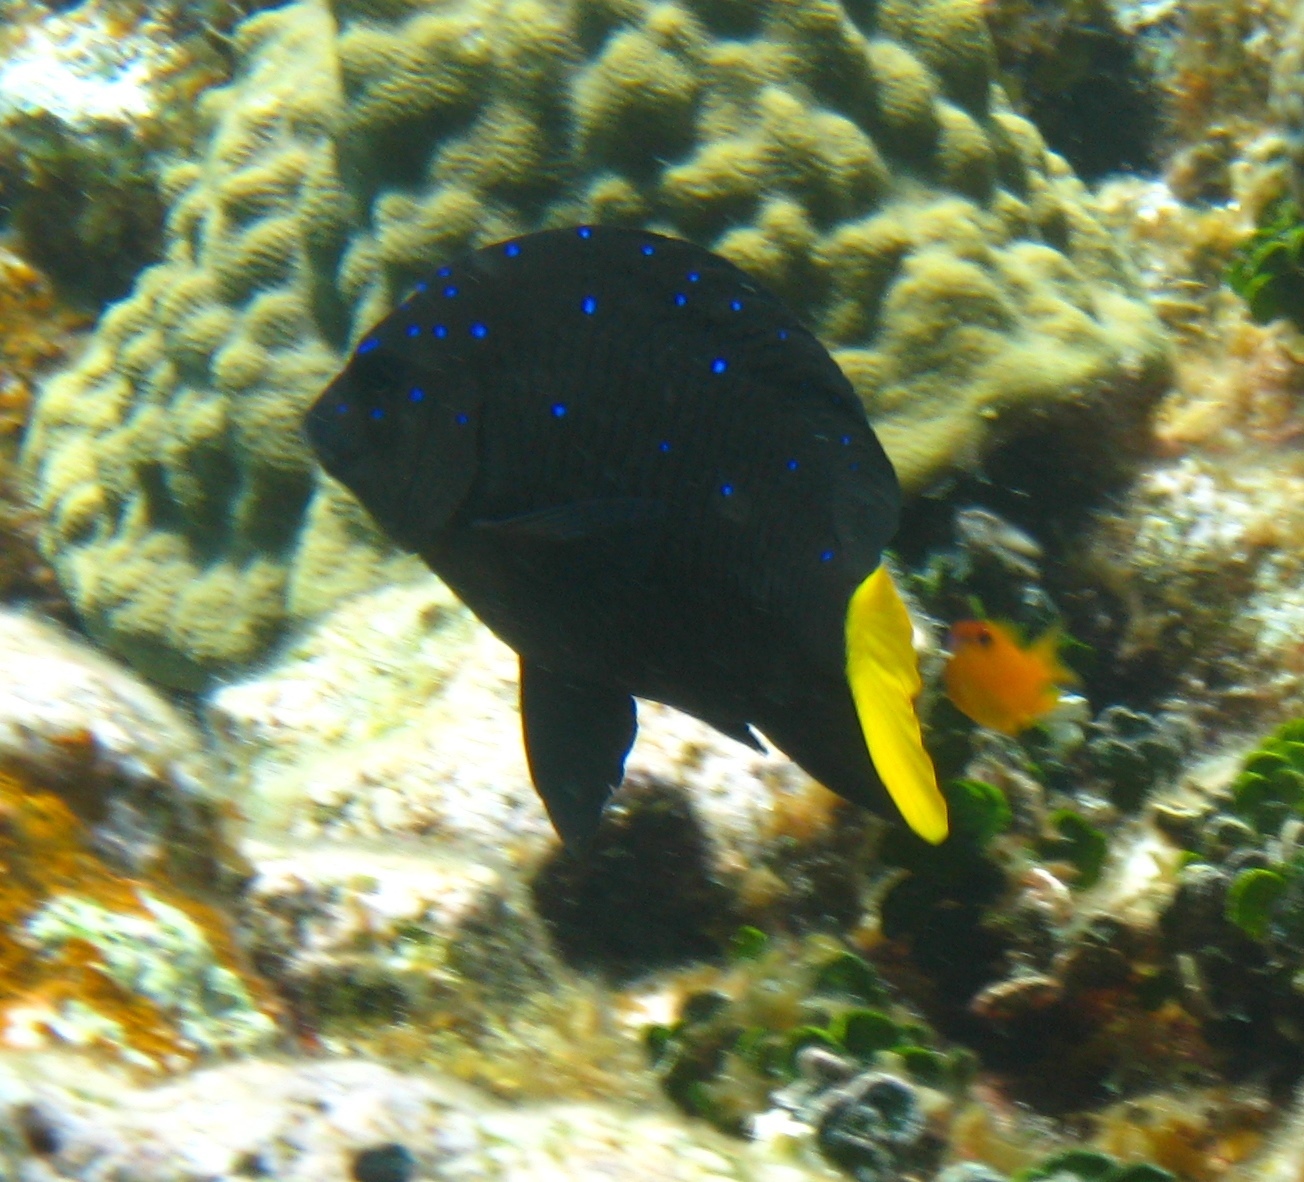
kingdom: Animalia
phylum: Chordata
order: Perciformes
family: Pomacentridae
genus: Microspathodon
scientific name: Microspathodon chrysurus
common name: Yellowtail damselfish
